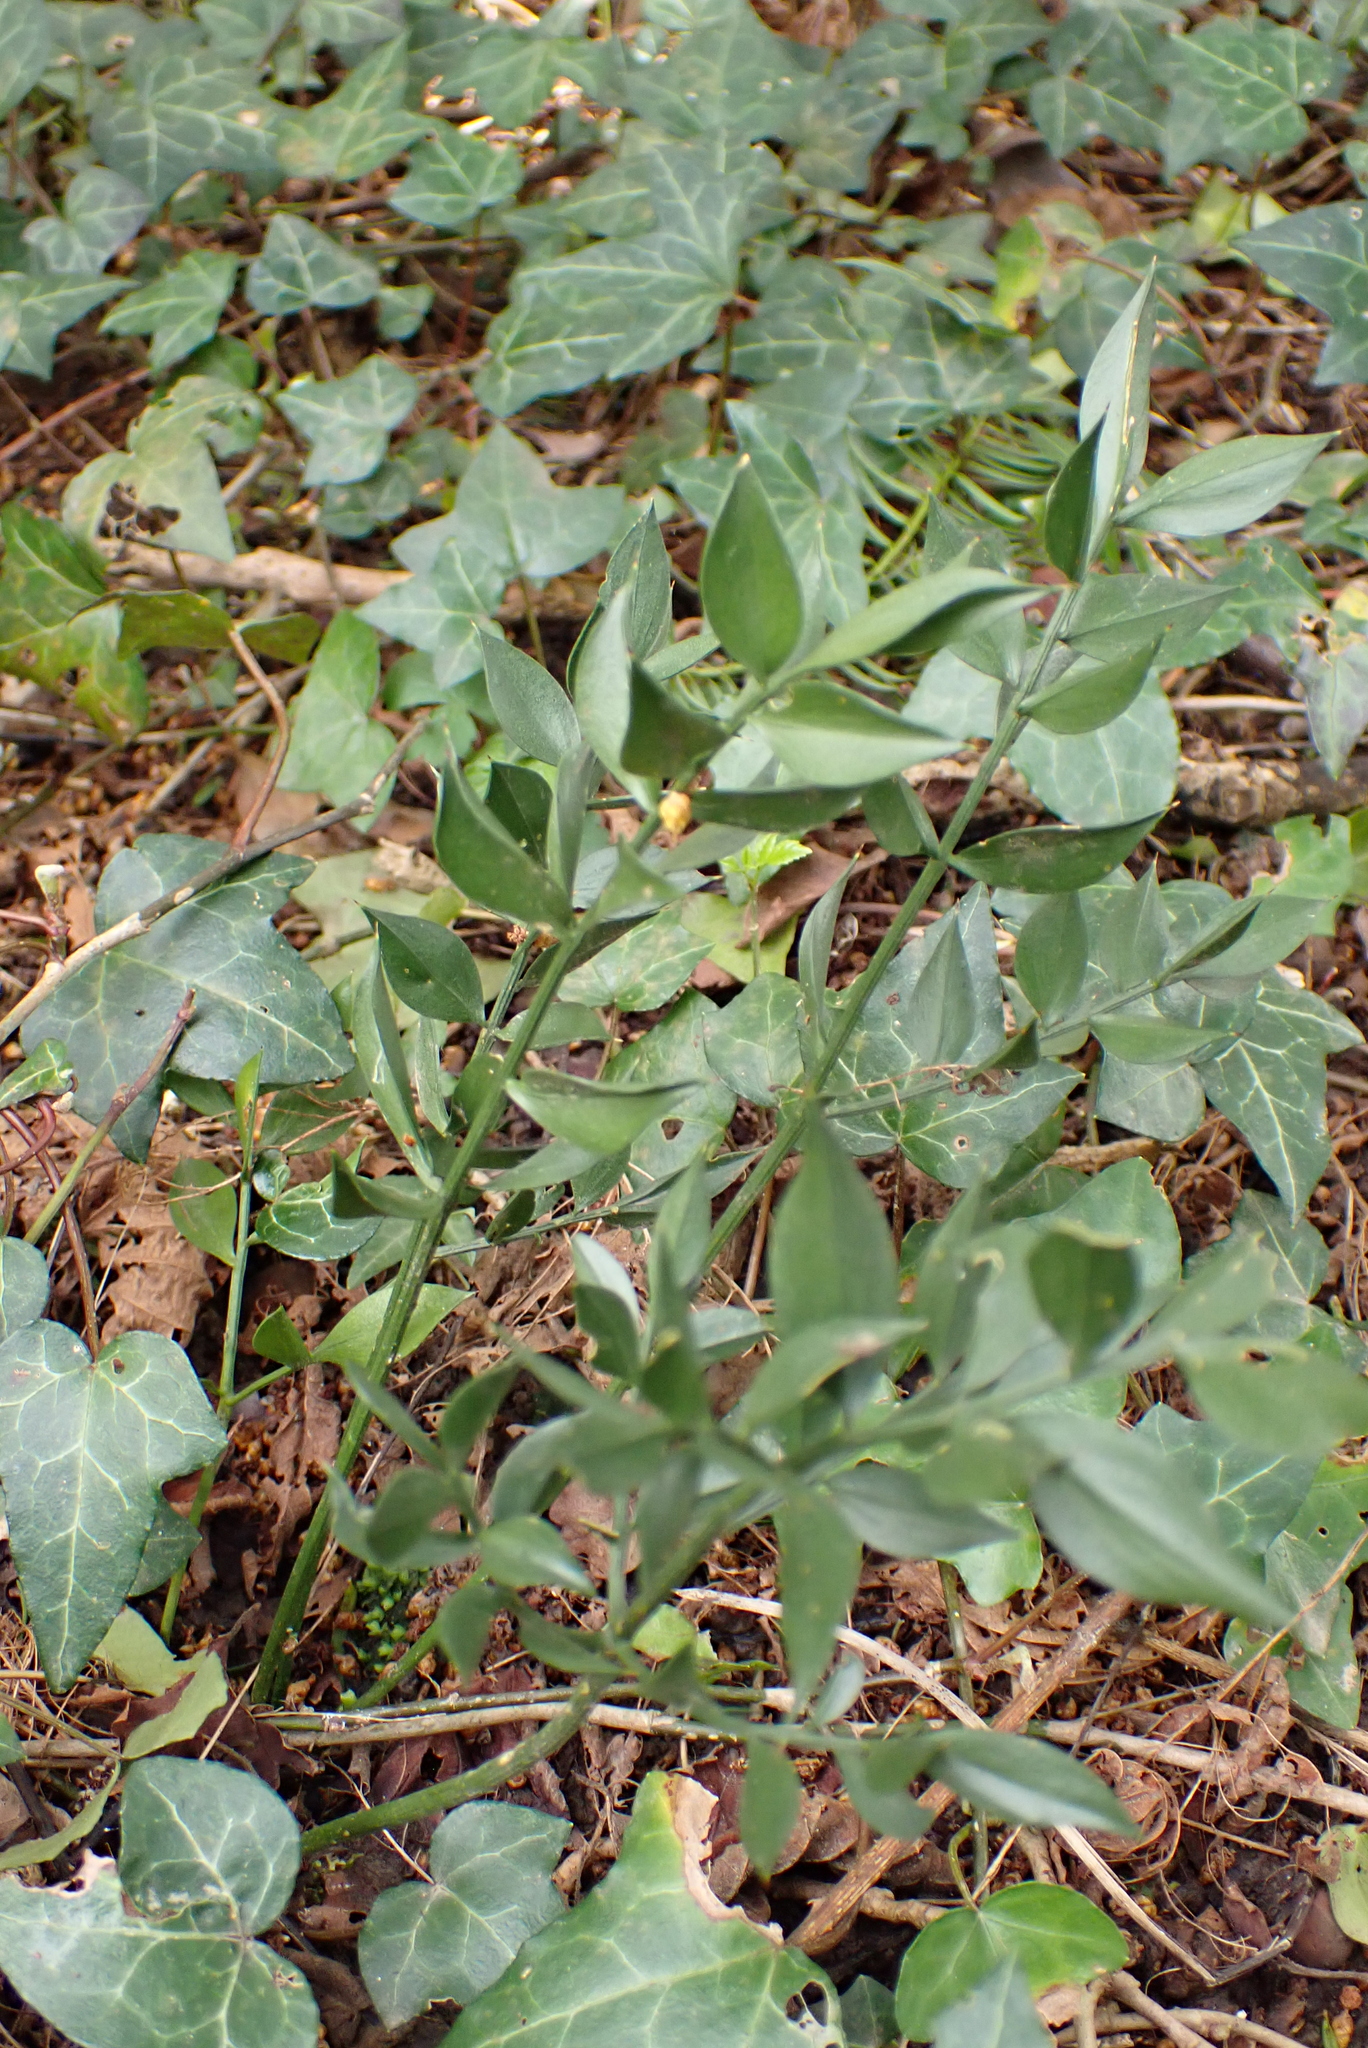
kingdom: Plantae
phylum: Tracheophyta
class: Liliopsida
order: Asparagales
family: Asparagaceae
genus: Ruscus
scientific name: Ruscus aculeatus
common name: Butcher's-broom
